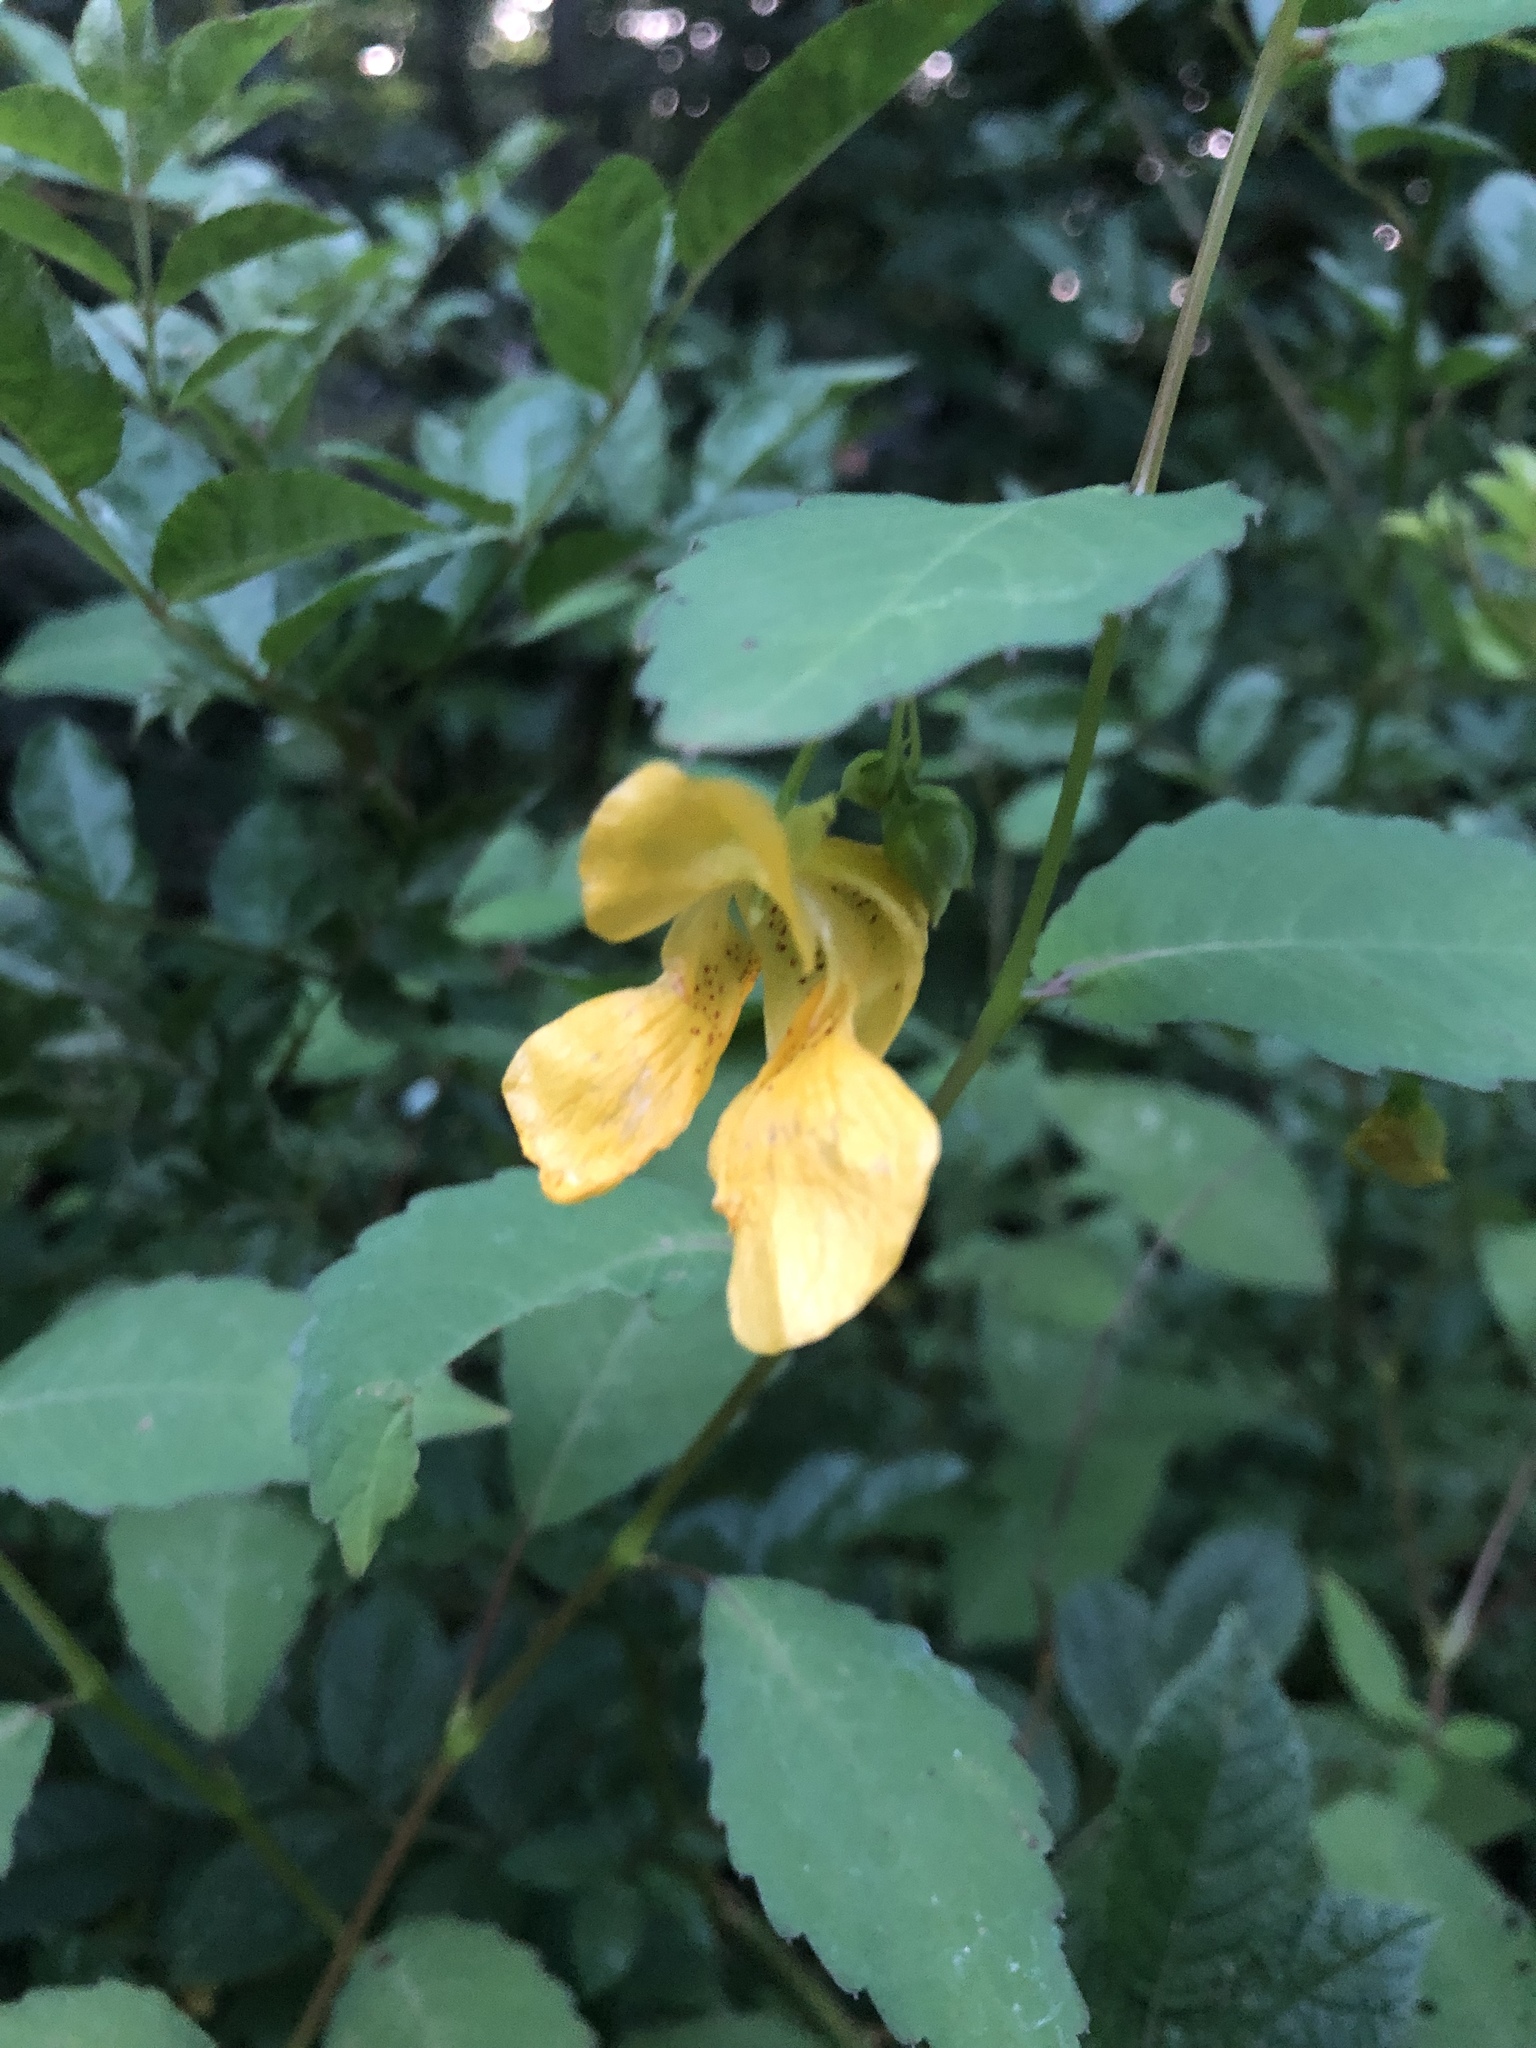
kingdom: Plantae
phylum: Tracheophyta
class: Magnoliopsida
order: Ericales
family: Balsaminaceae
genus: Impatiens
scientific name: Impatiens pallida
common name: Pale snapweed
